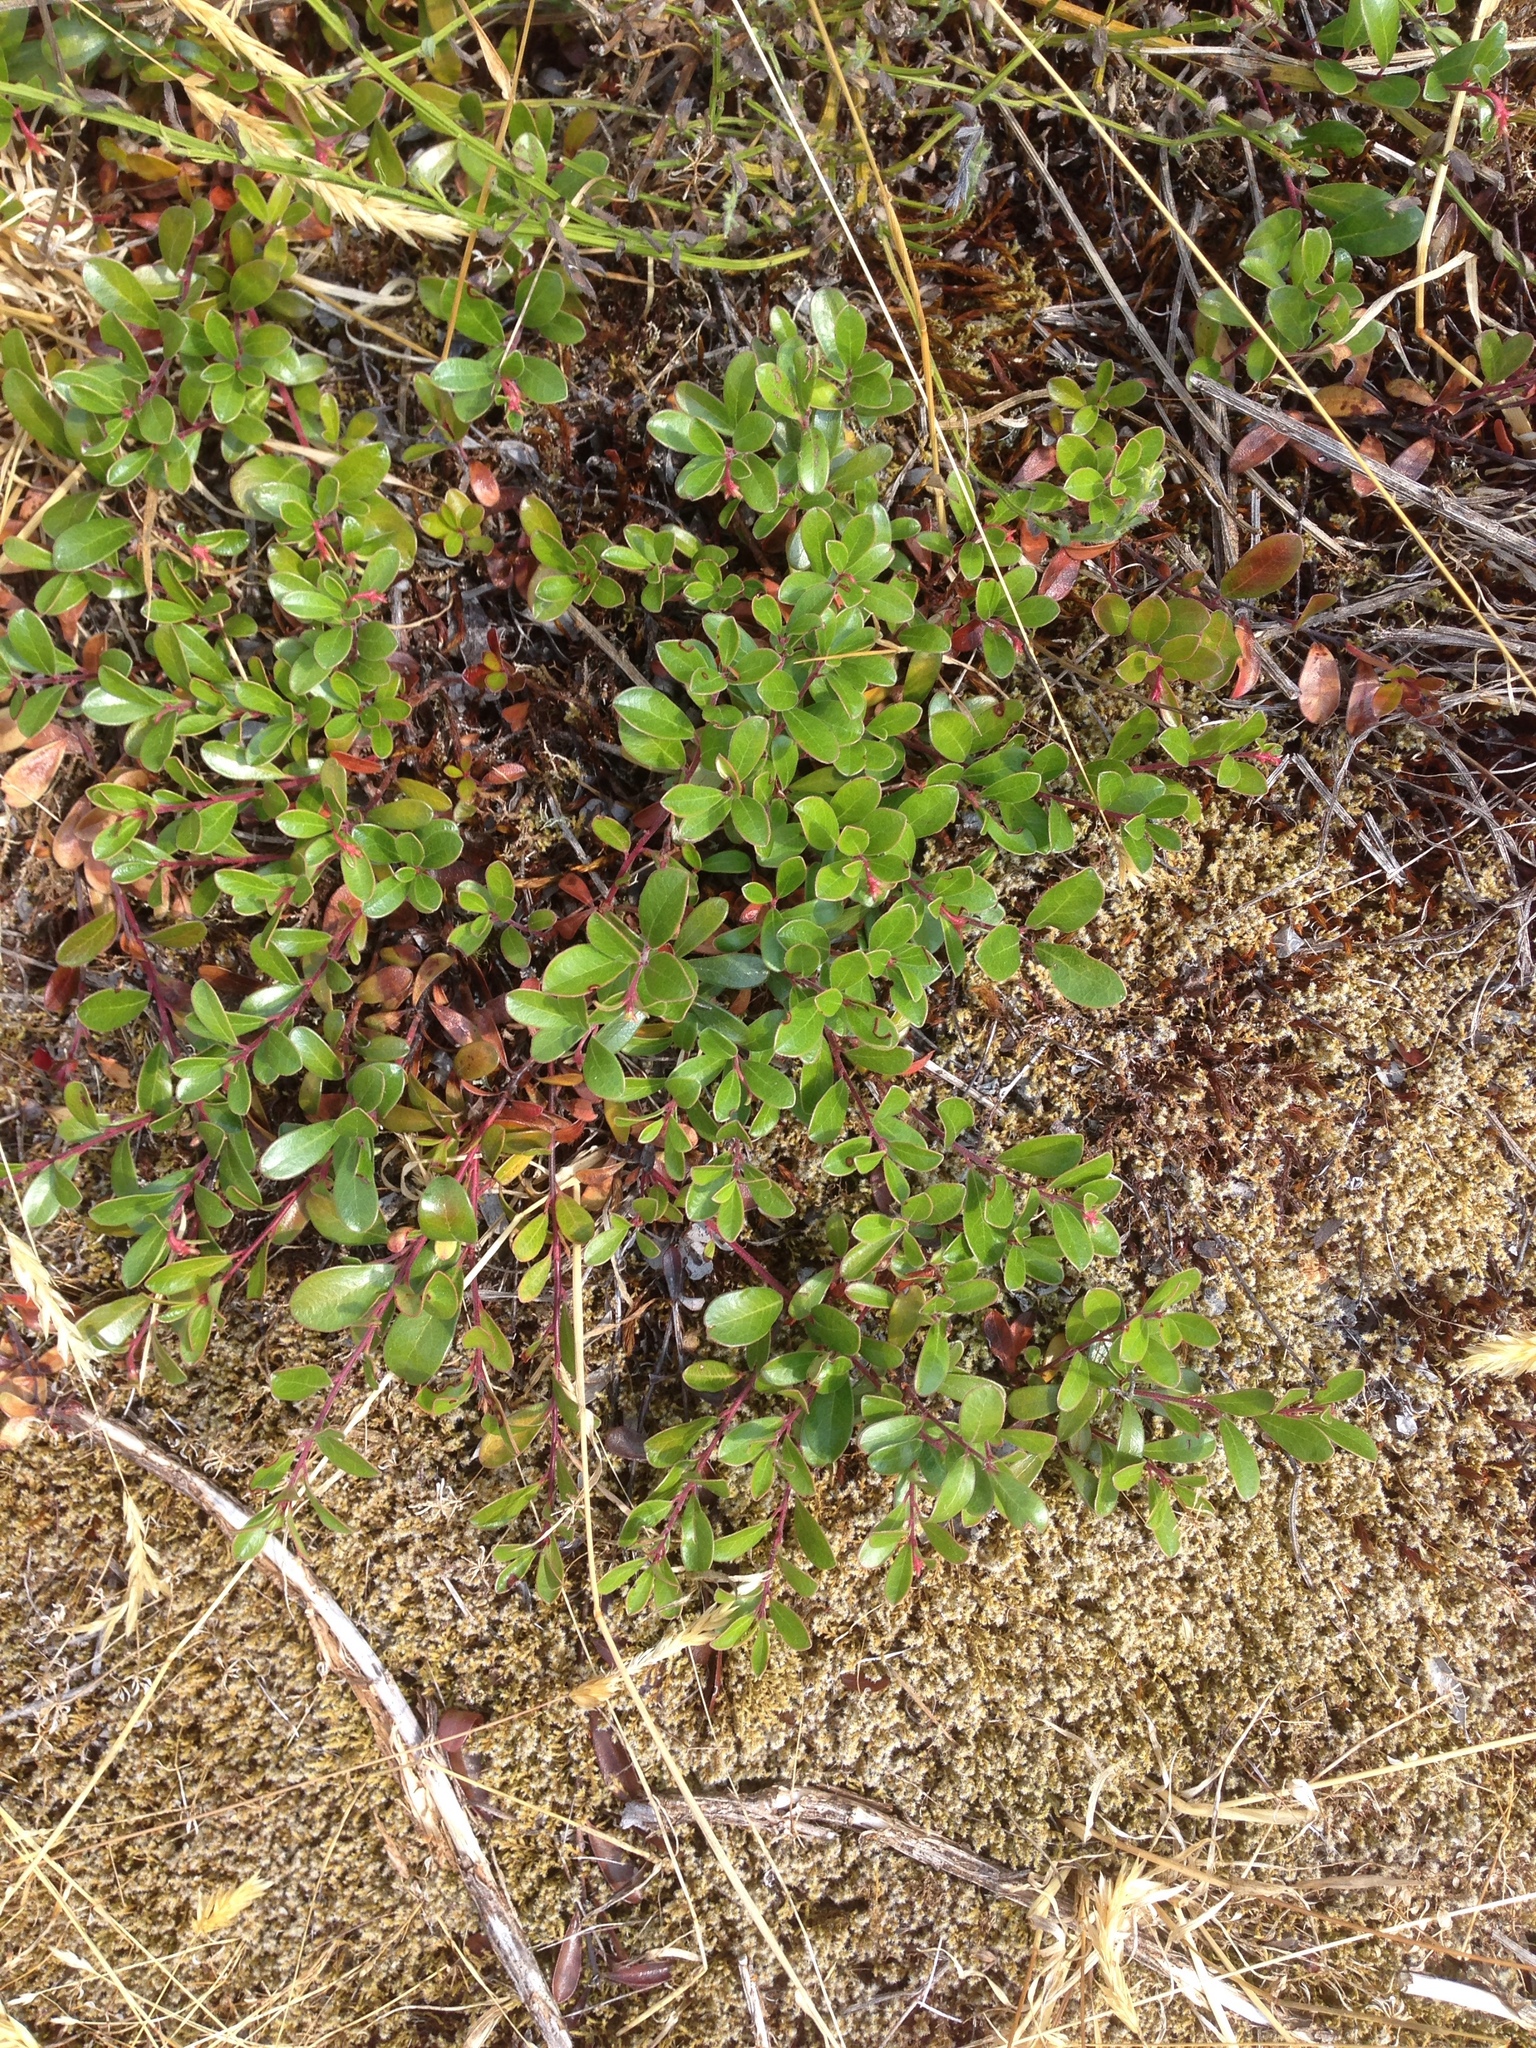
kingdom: Plantae
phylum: Tracheophyta
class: Magnoliopsida
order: Ericales
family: Ericaceae
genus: Arctostaphylos
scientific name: Arctostaphylos uva-ursi
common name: Bearberry
